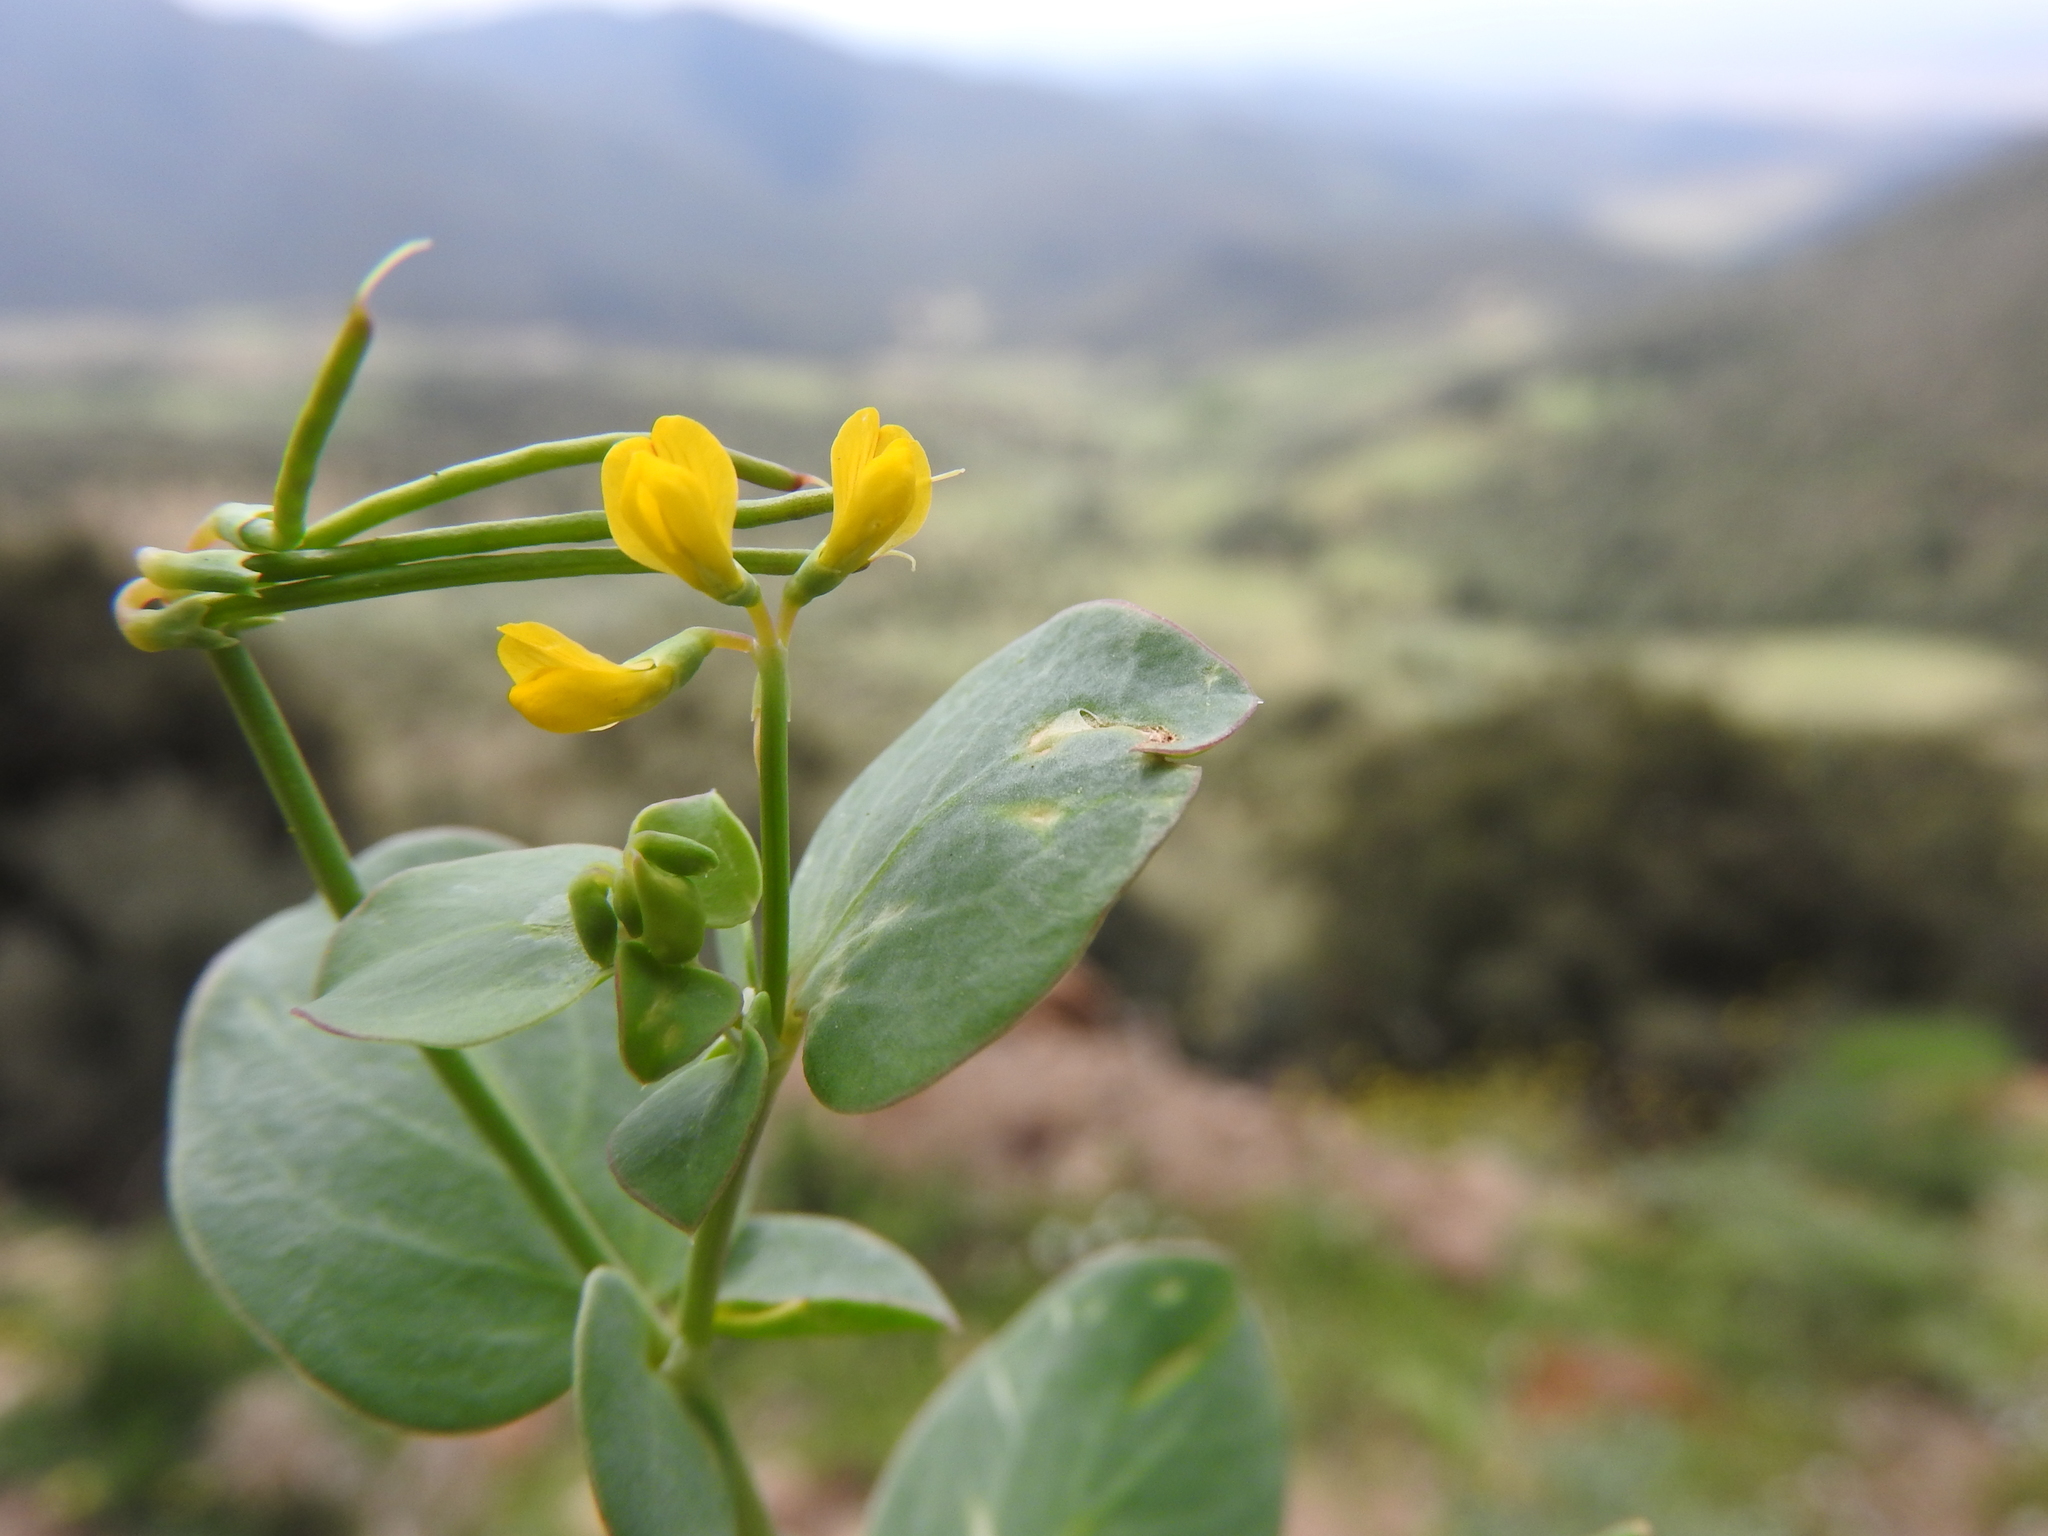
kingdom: Plantae
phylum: Tracheophyta
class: Magnoliopsida
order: Fabales
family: Fabaceae
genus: Coronilla
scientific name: Coronilla scorpioides
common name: Annual scorpion-vetch
